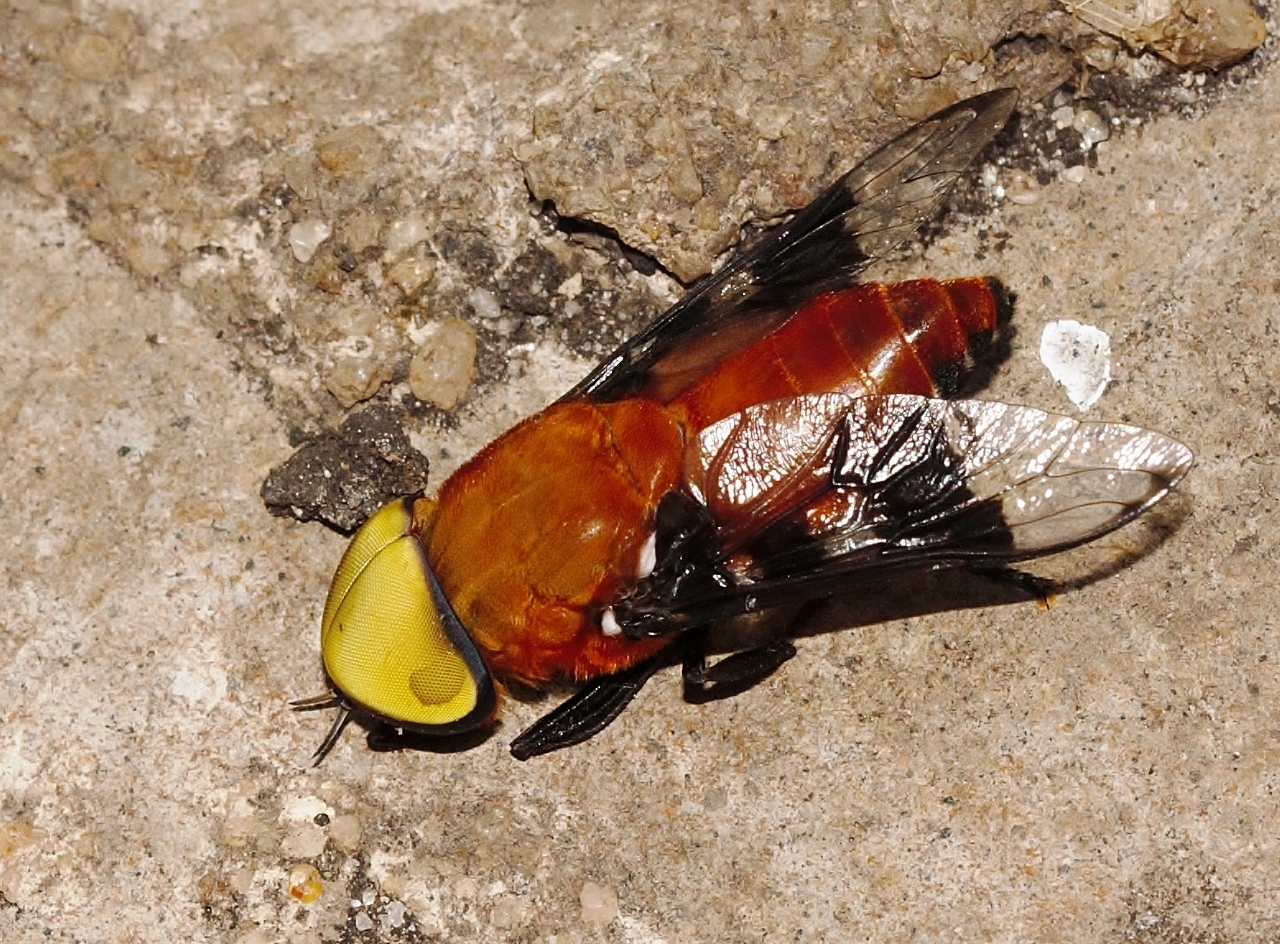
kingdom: Animalia
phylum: Arthropoda
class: Insecta
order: Diptera
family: Tabanidae
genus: Ancala
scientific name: Ancala africana
